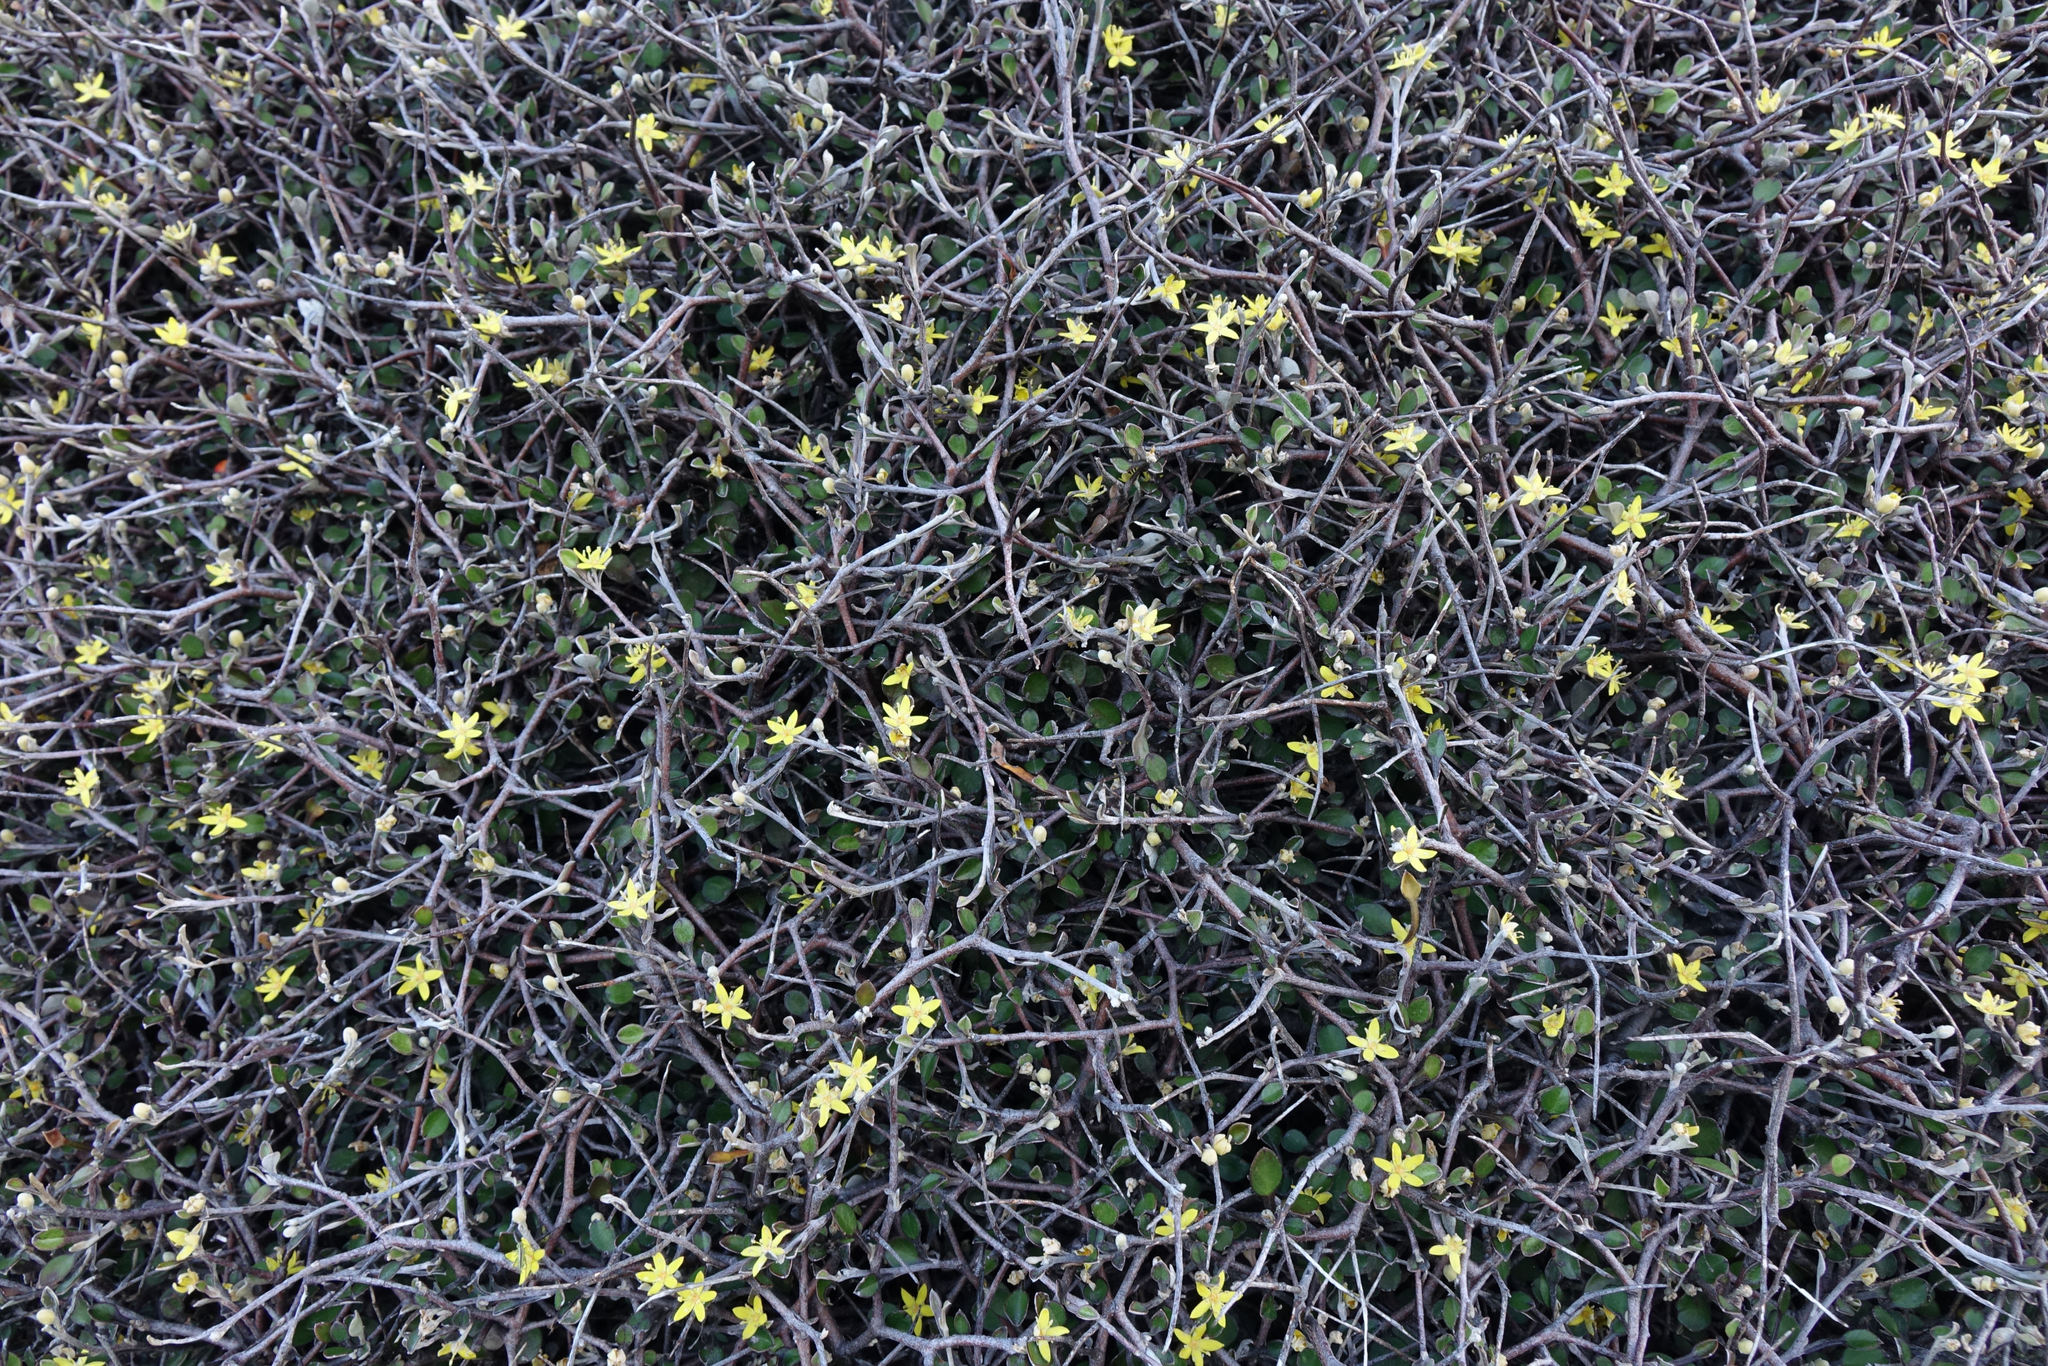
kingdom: Plantae
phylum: Tracheophyta
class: Magnoliopsida
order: Asterales
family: Argophyllaceae
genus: Corokia
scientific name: Corokia cotoneaster
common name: Wire nettingbush
